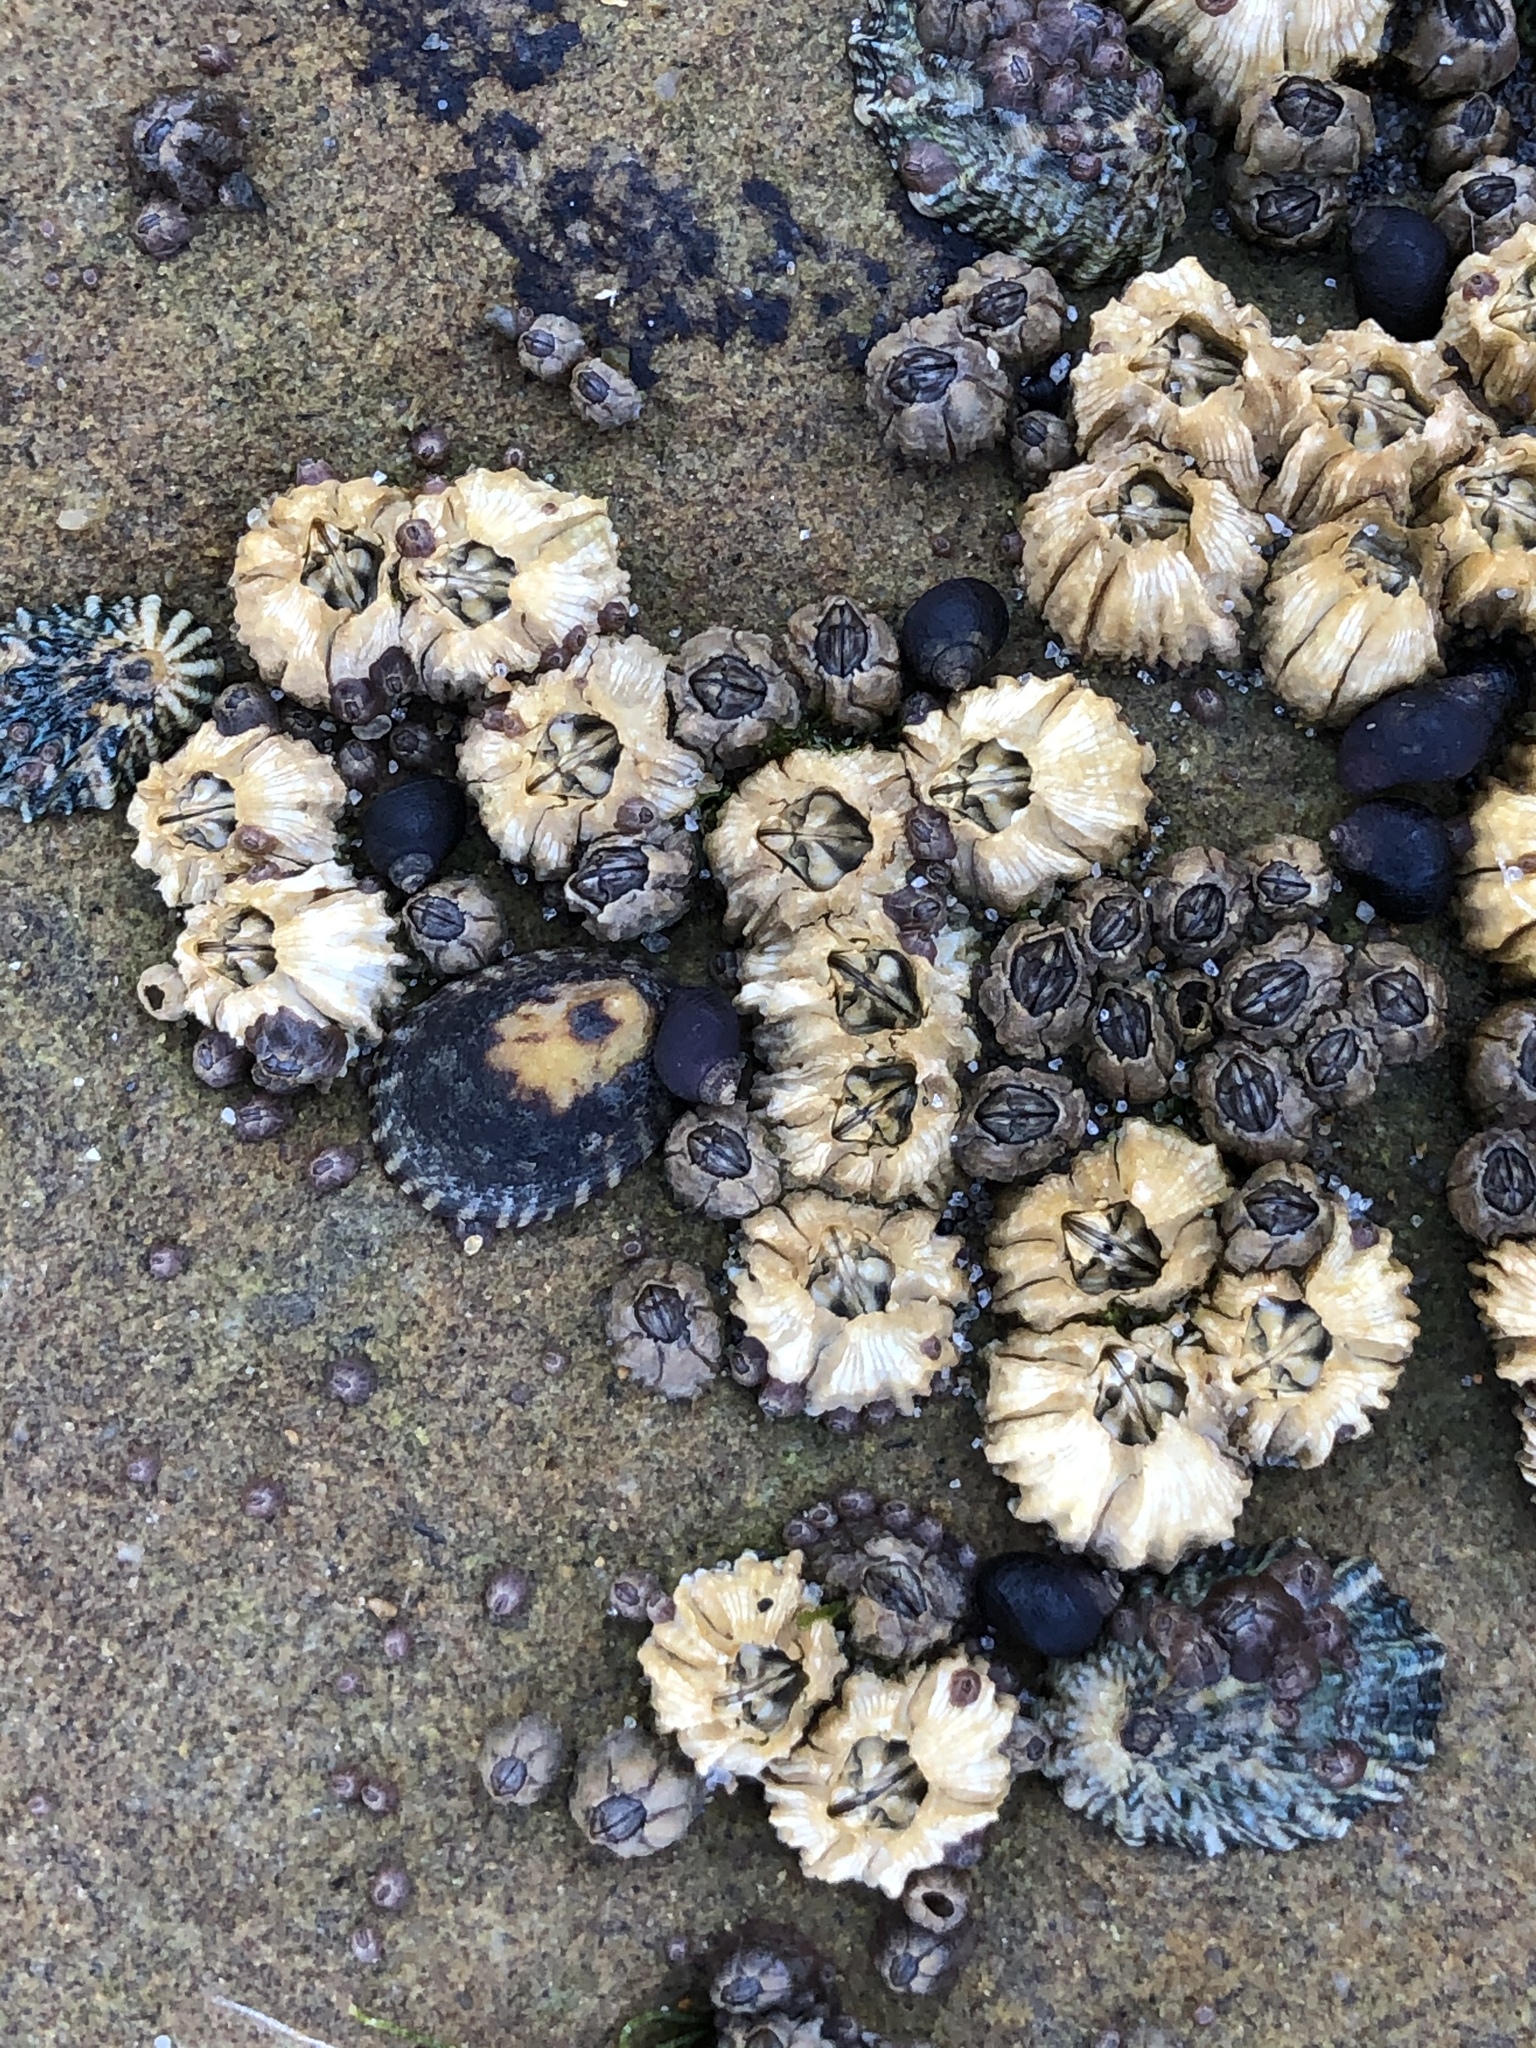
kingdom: Animalia
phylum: Arthropoda
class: Maxillopoda
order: Sessilia
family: Balanidae
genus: Balanus
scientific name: Balanus glandula
